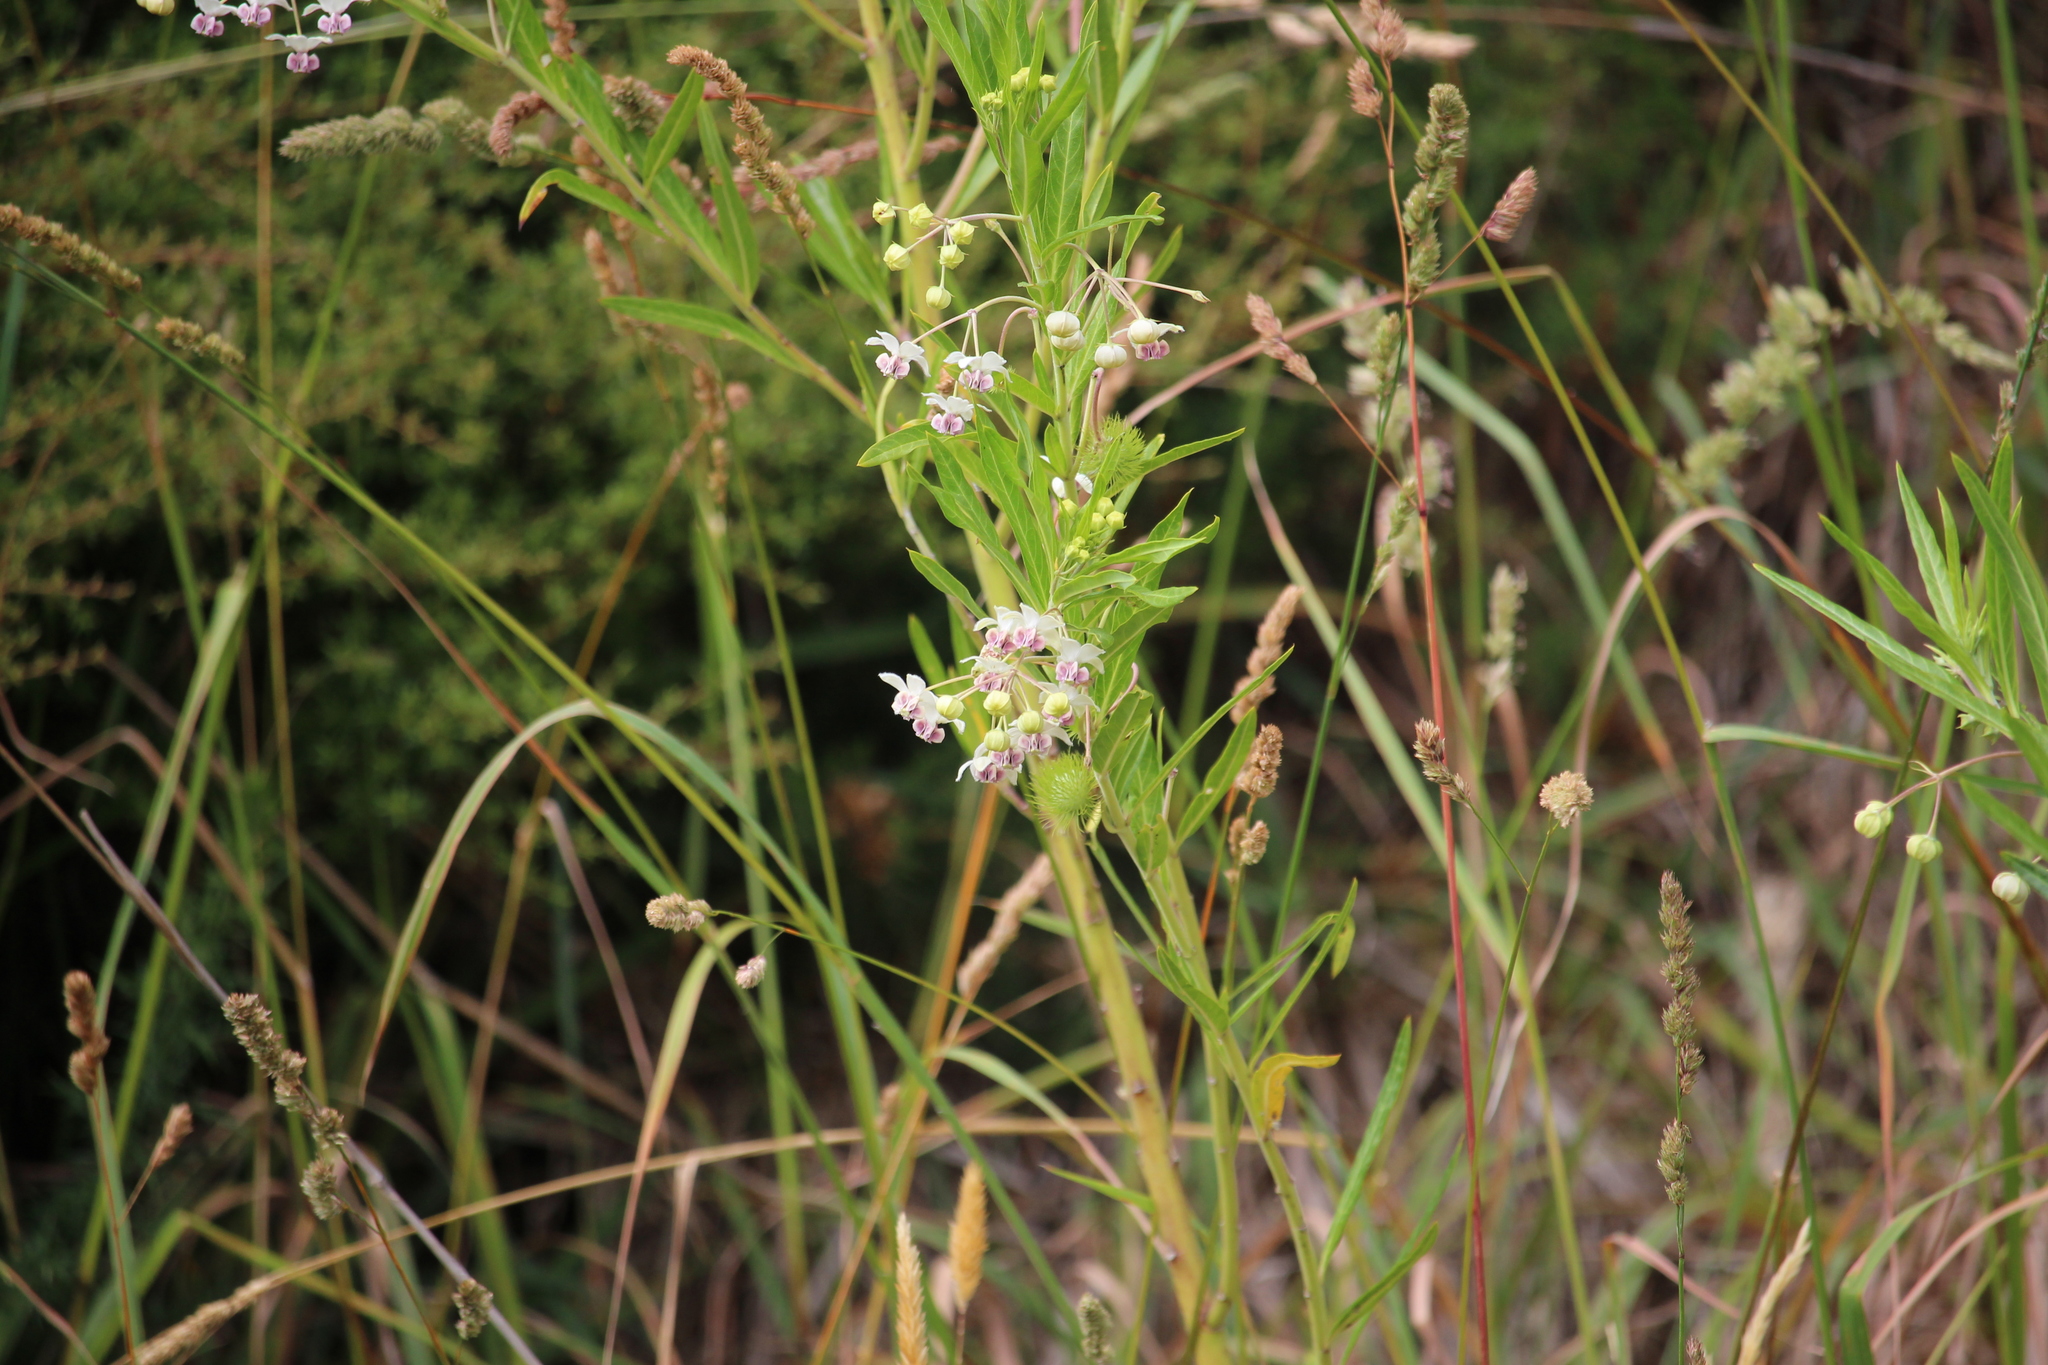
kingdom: Plantae
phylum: Tracheophyta
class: Magnoliopsida
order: Gentianales
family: Apocynaceae
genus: Gomphocarpus
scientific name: Gomphocarpus physocarpus
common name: Balloon cotton bush
